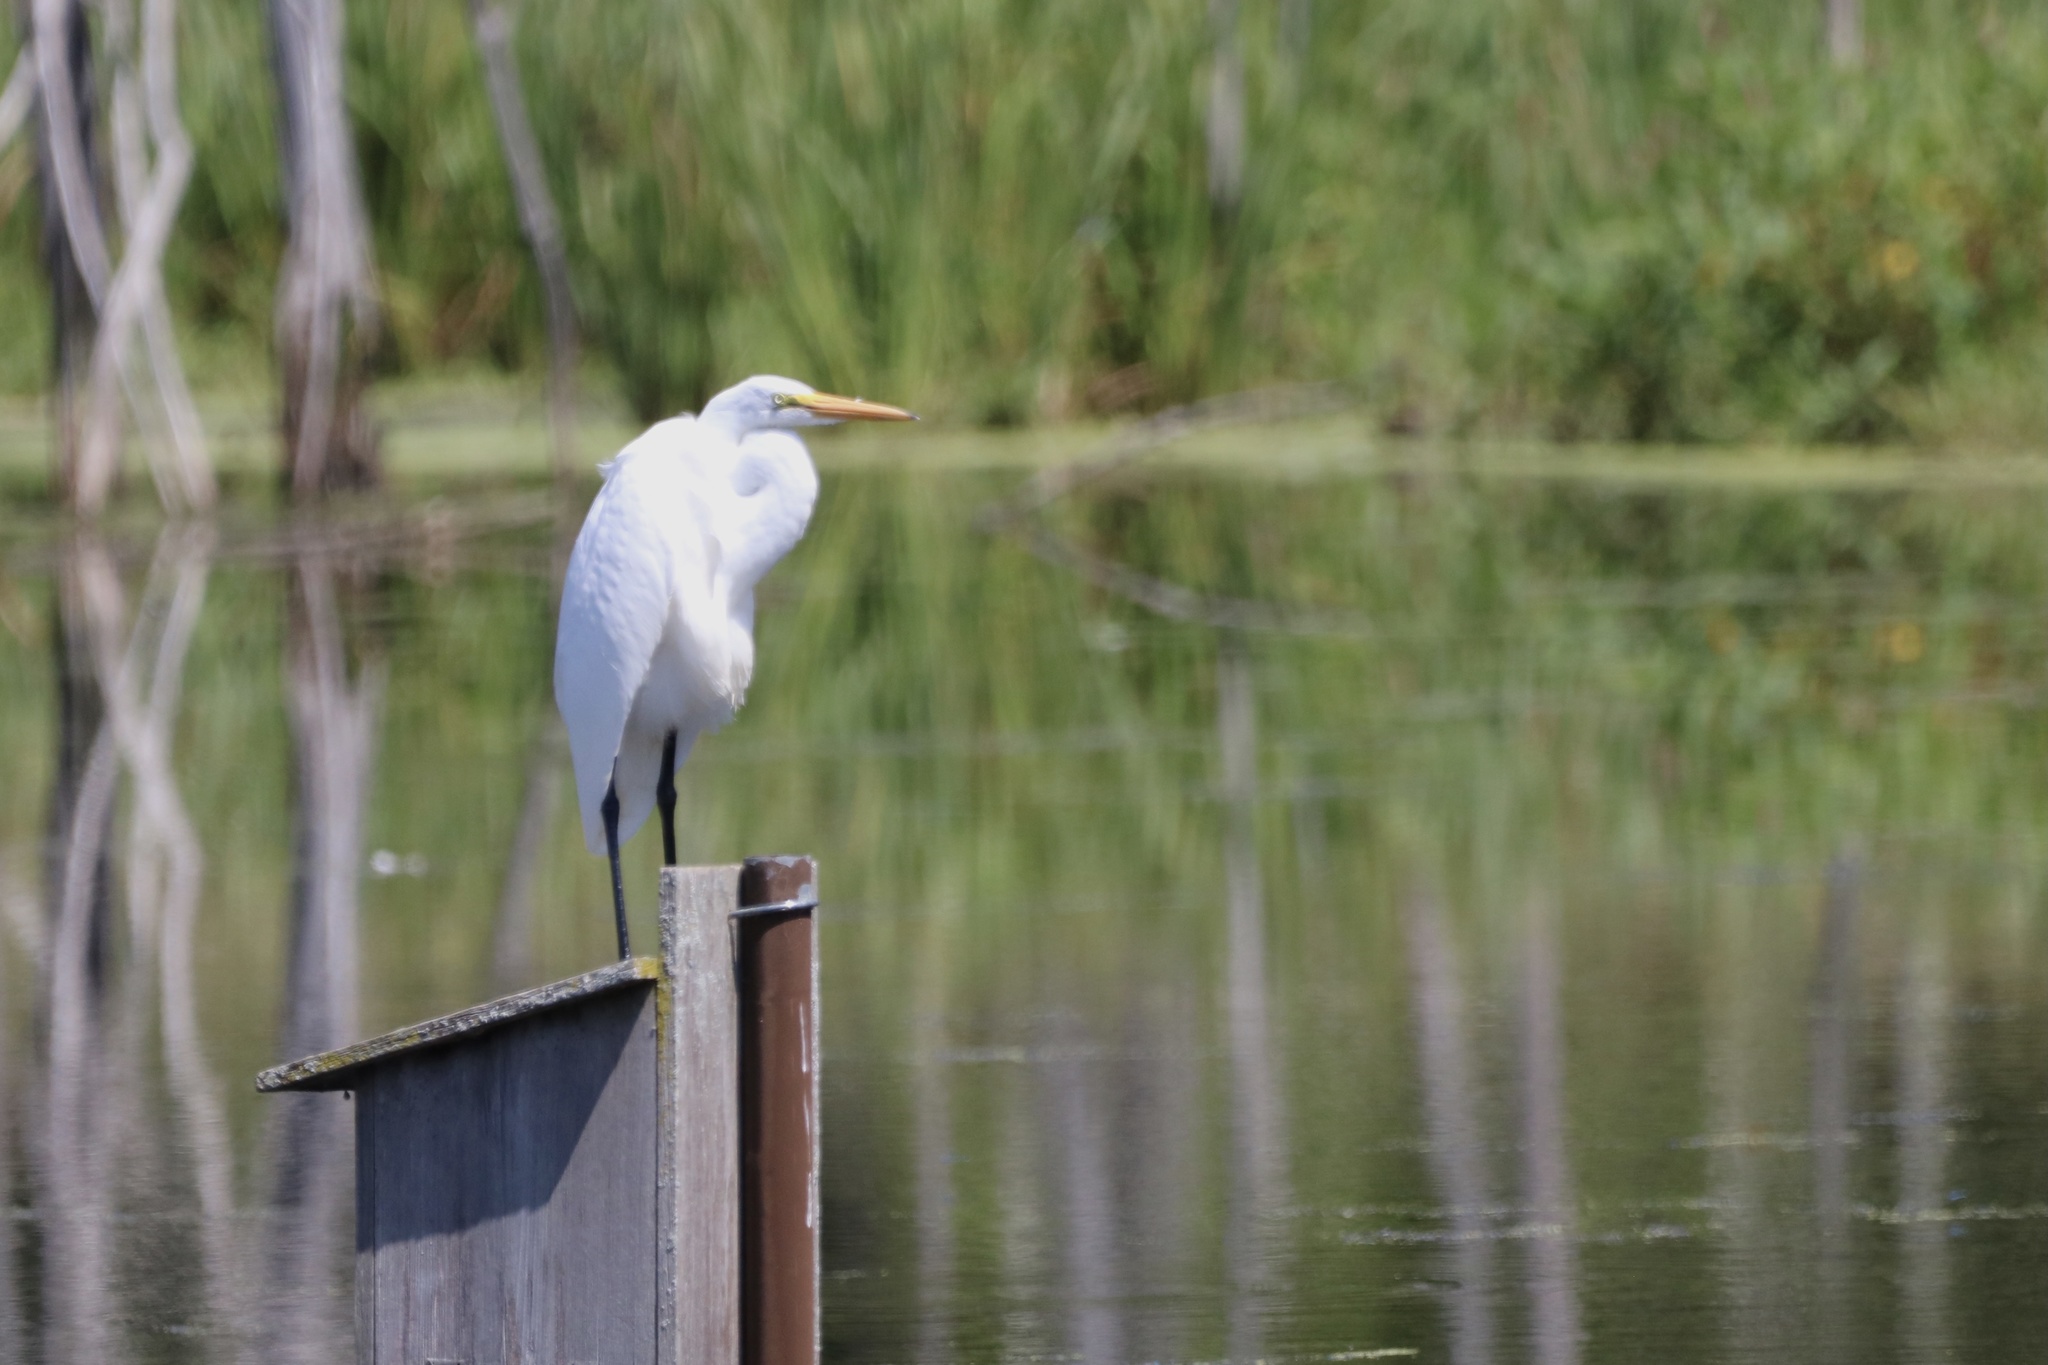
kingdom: Animalia
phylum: Chordata
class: Aves
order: Pelecaniformes
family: Ardeidae
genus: Ardea
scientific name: Ardea alba
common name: Great egret
